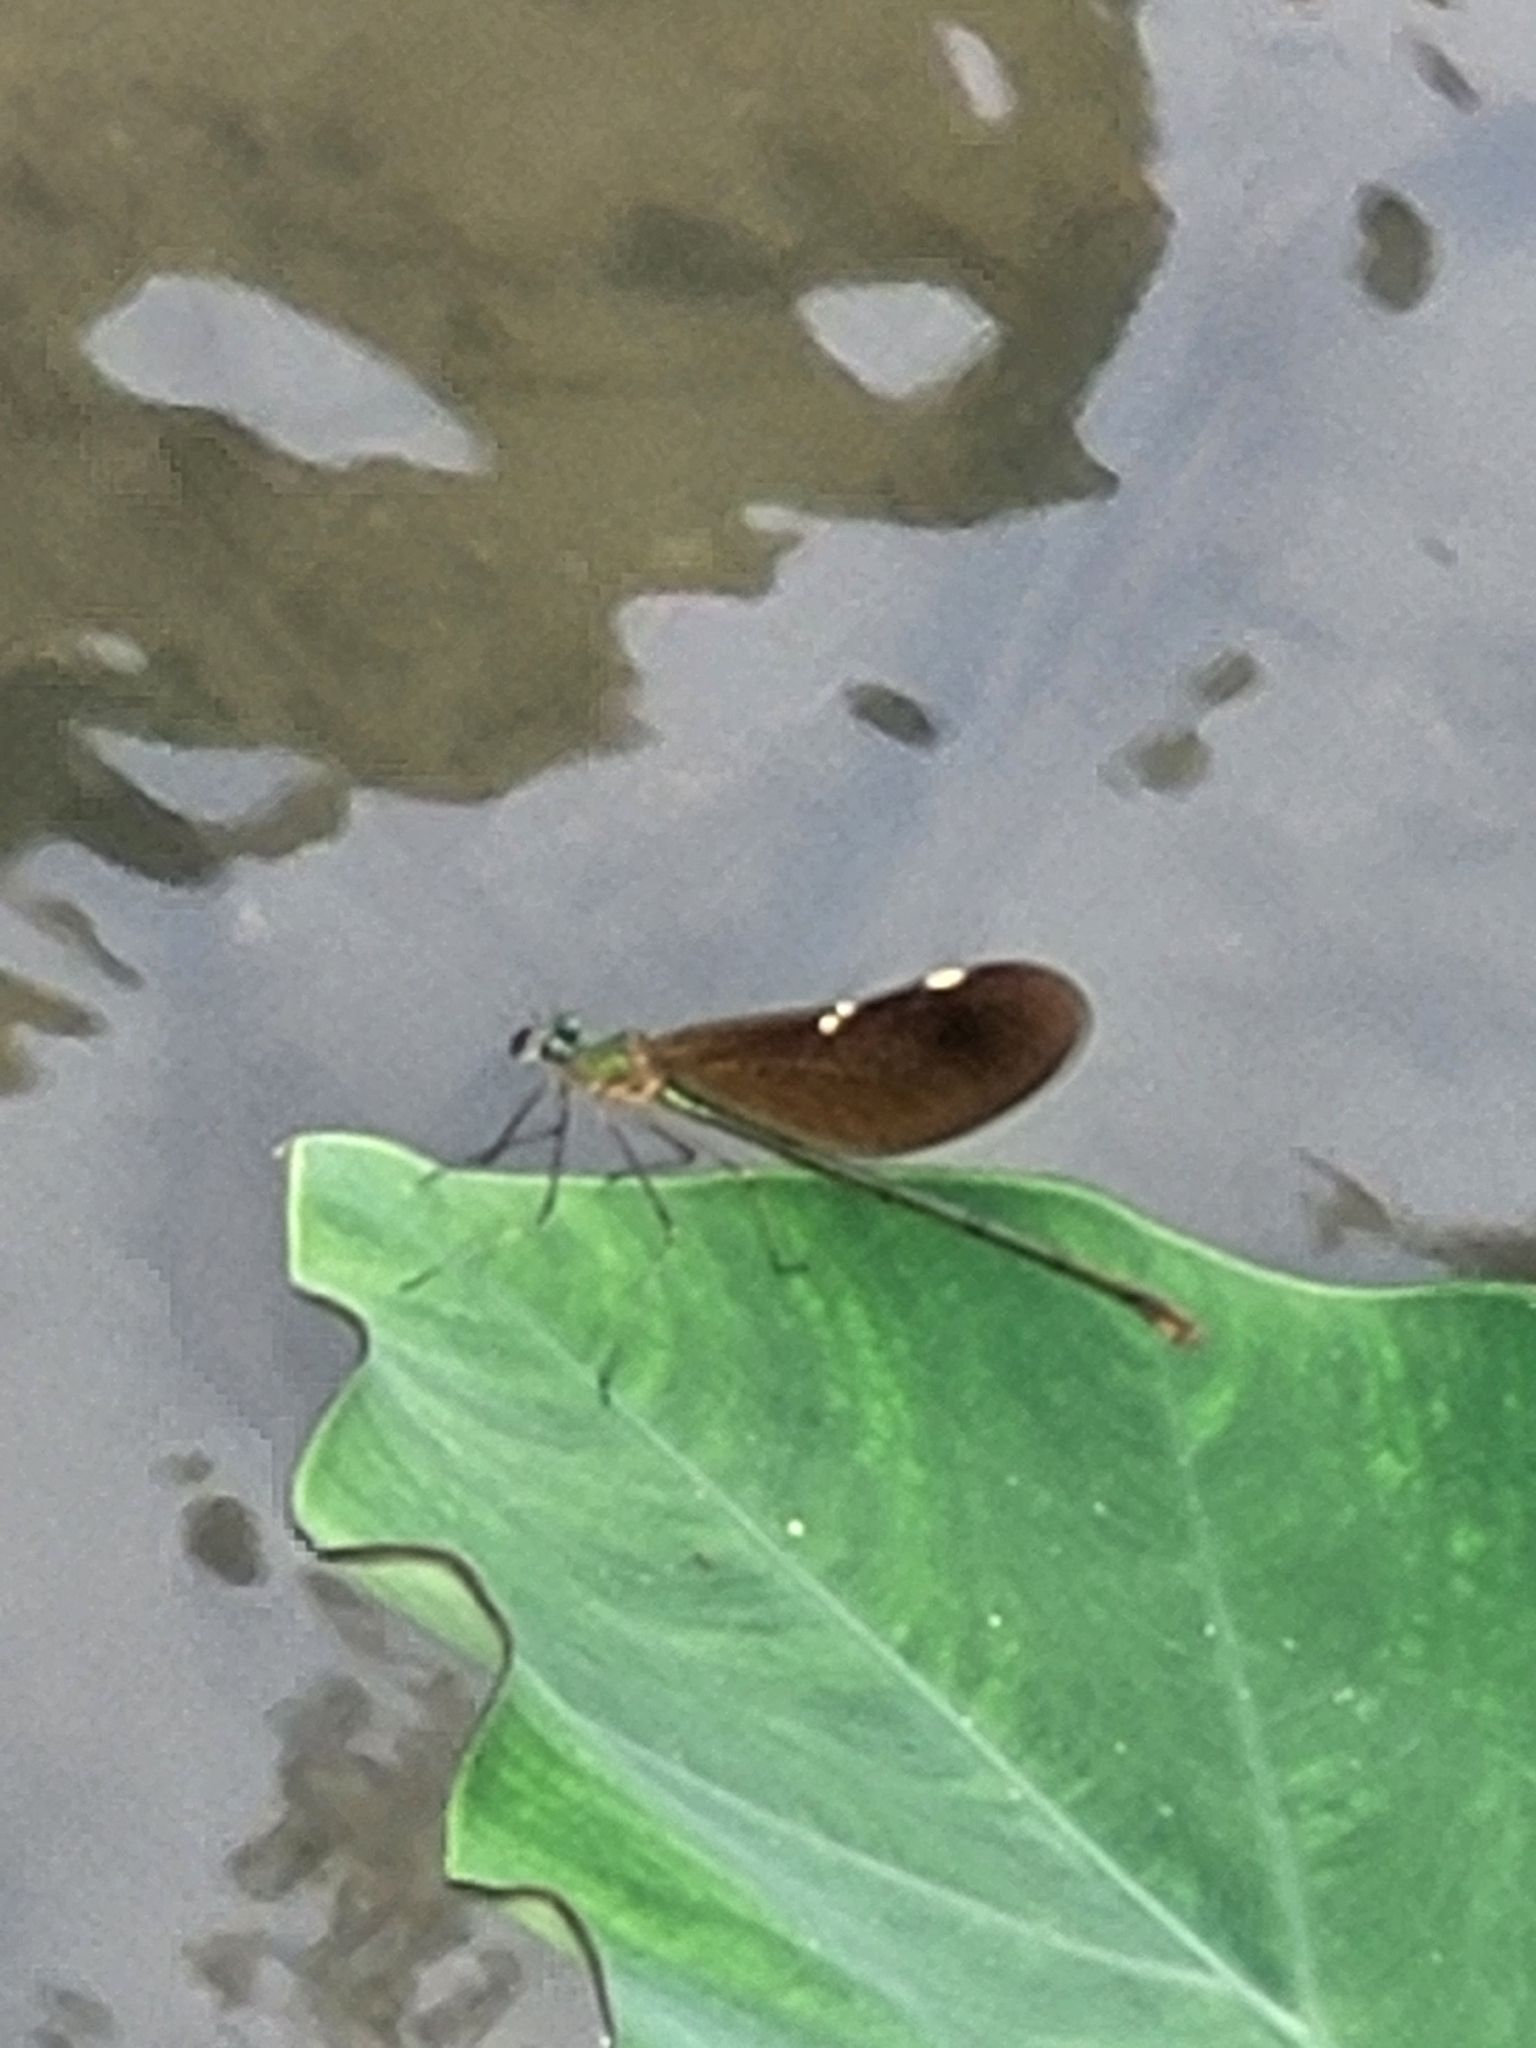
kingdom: Animalia
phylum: Arthropoda
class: Insecta
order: Odonata
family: Calopterygidae
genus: Neurobasis
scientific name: Neurobasis chinensis
